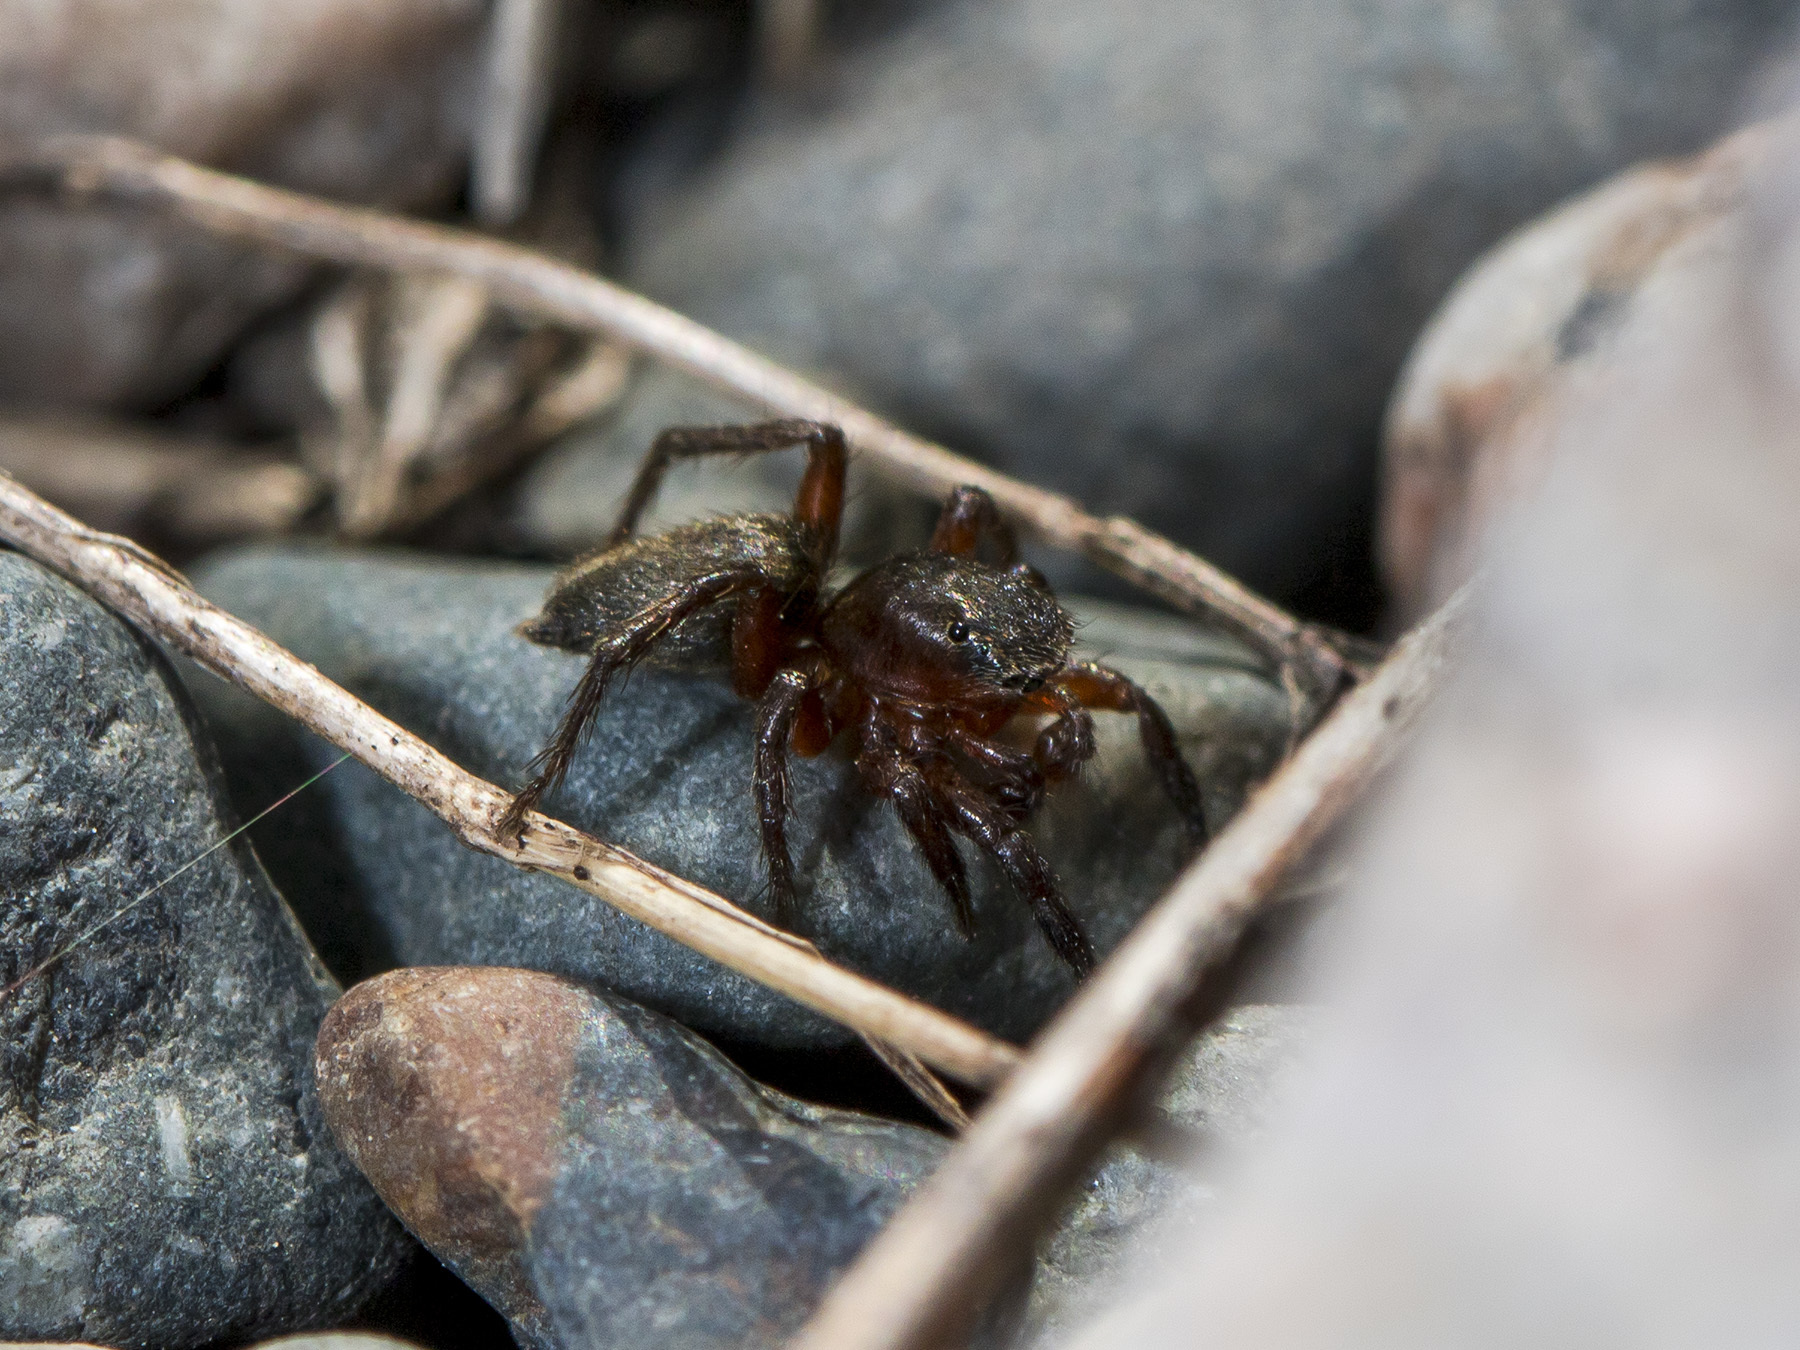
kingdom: Animalia
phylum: Arthropoda
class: Arachnida
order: Araneae
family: Salticidae
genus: Phlegra
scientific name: Phlegra fasciata
